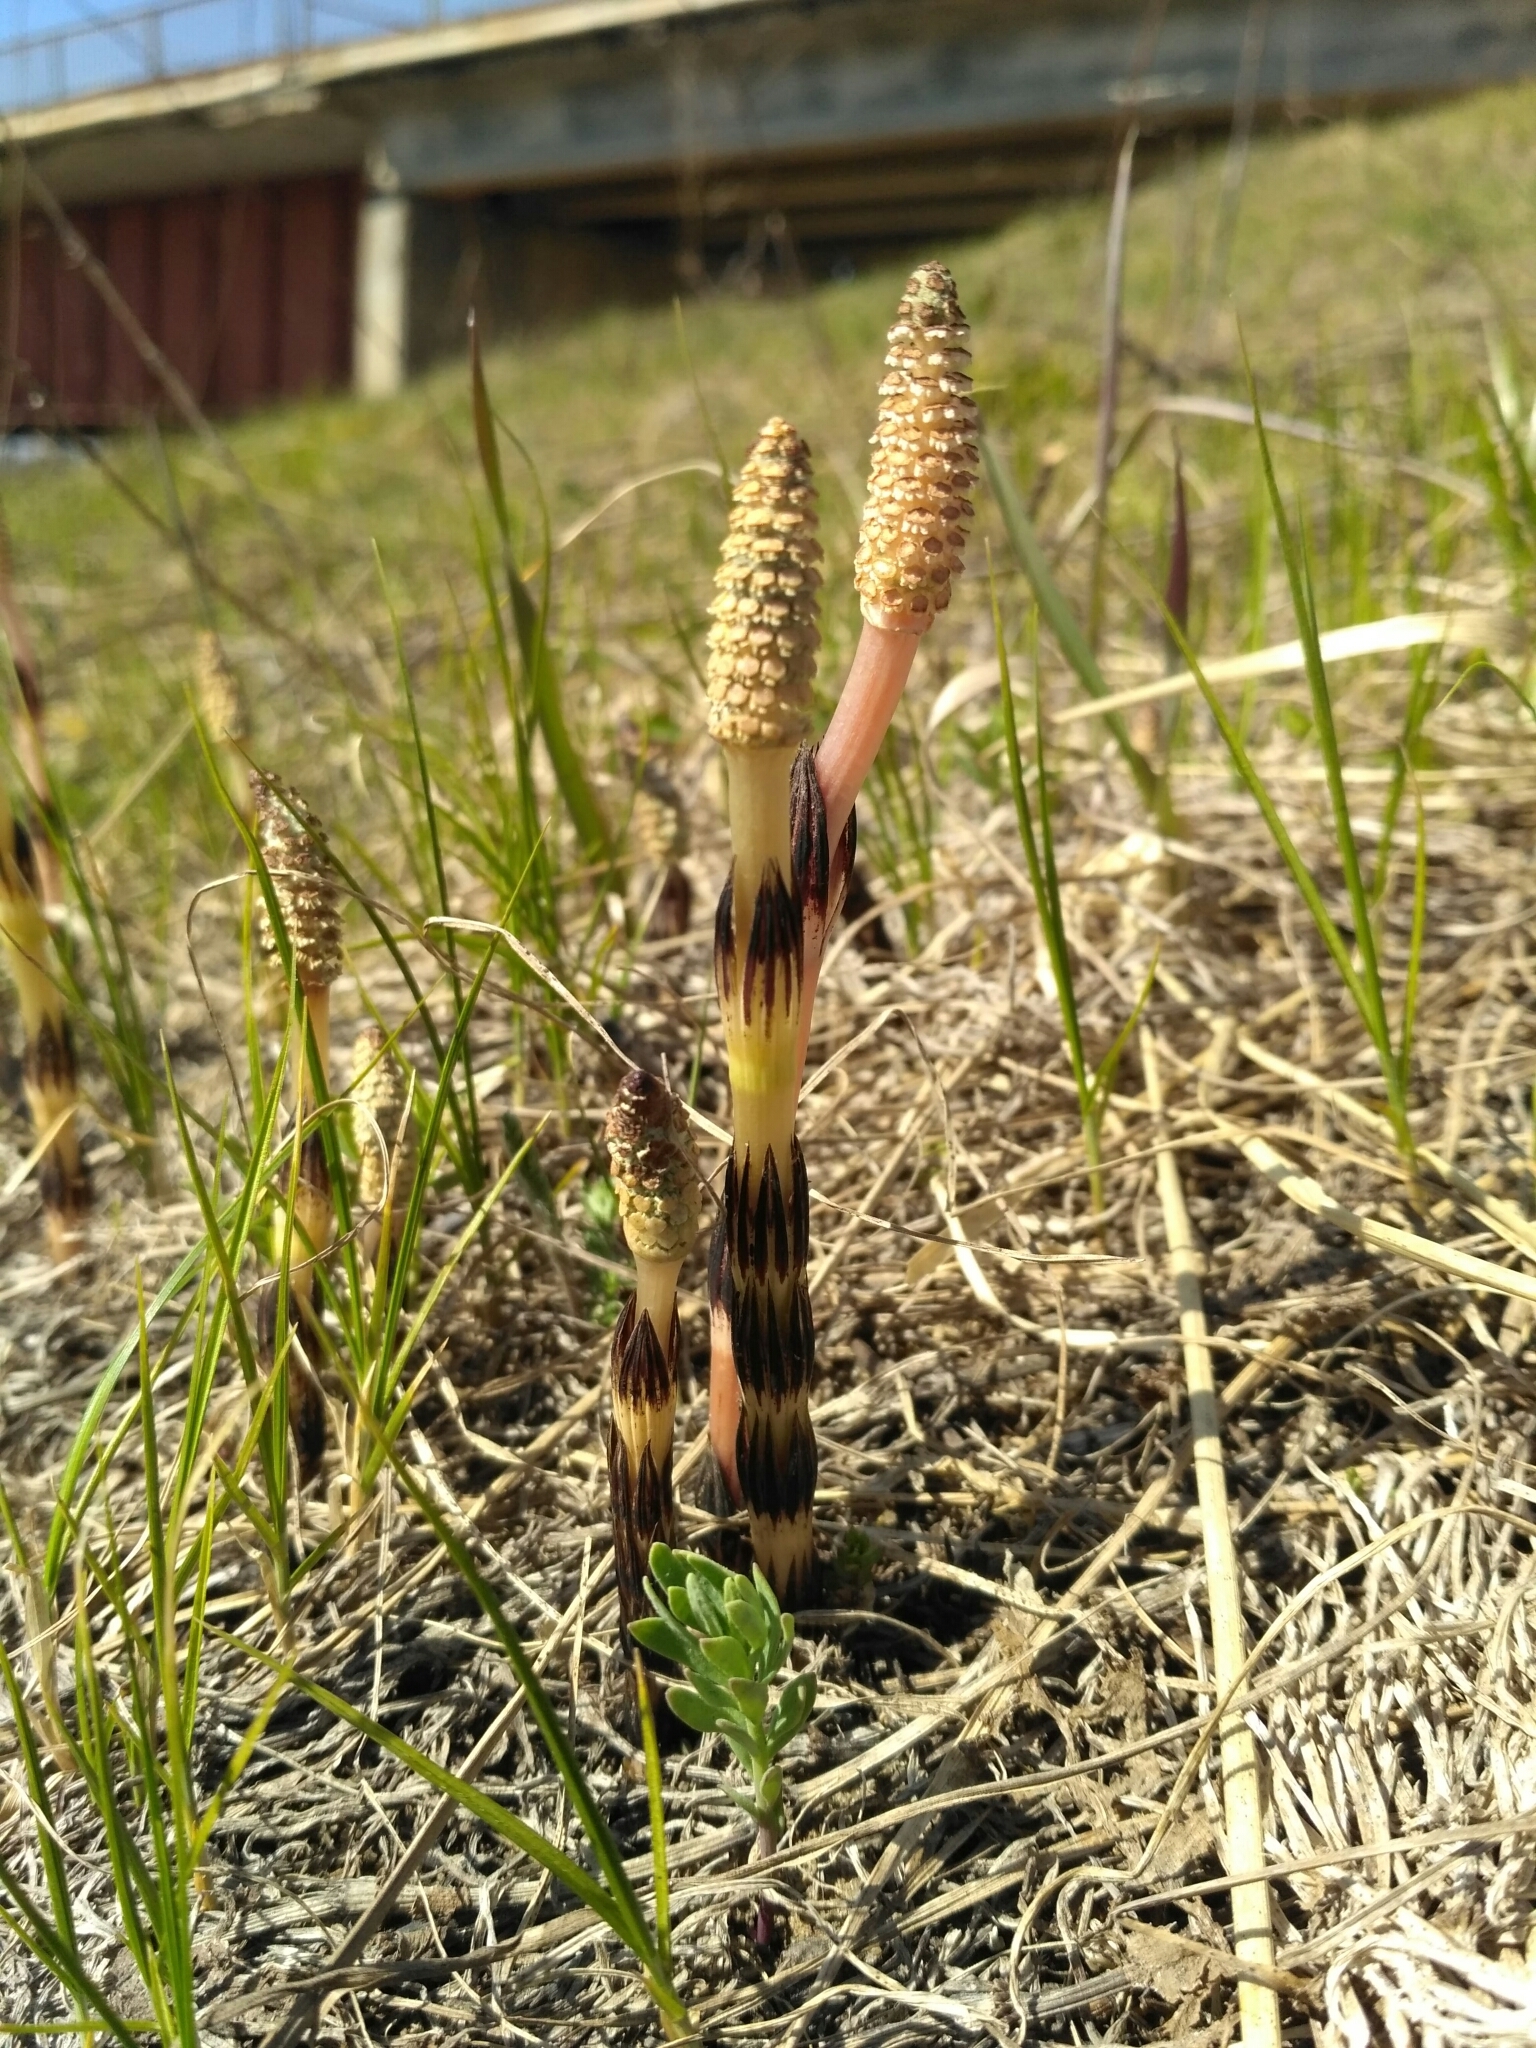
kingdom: Plantae
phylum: Tracheophyta
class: Polypodiopsida
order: Equisetales
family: Equisetaceae
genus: Equisetum
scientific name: Equisetum arvense
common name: Field horsetail
